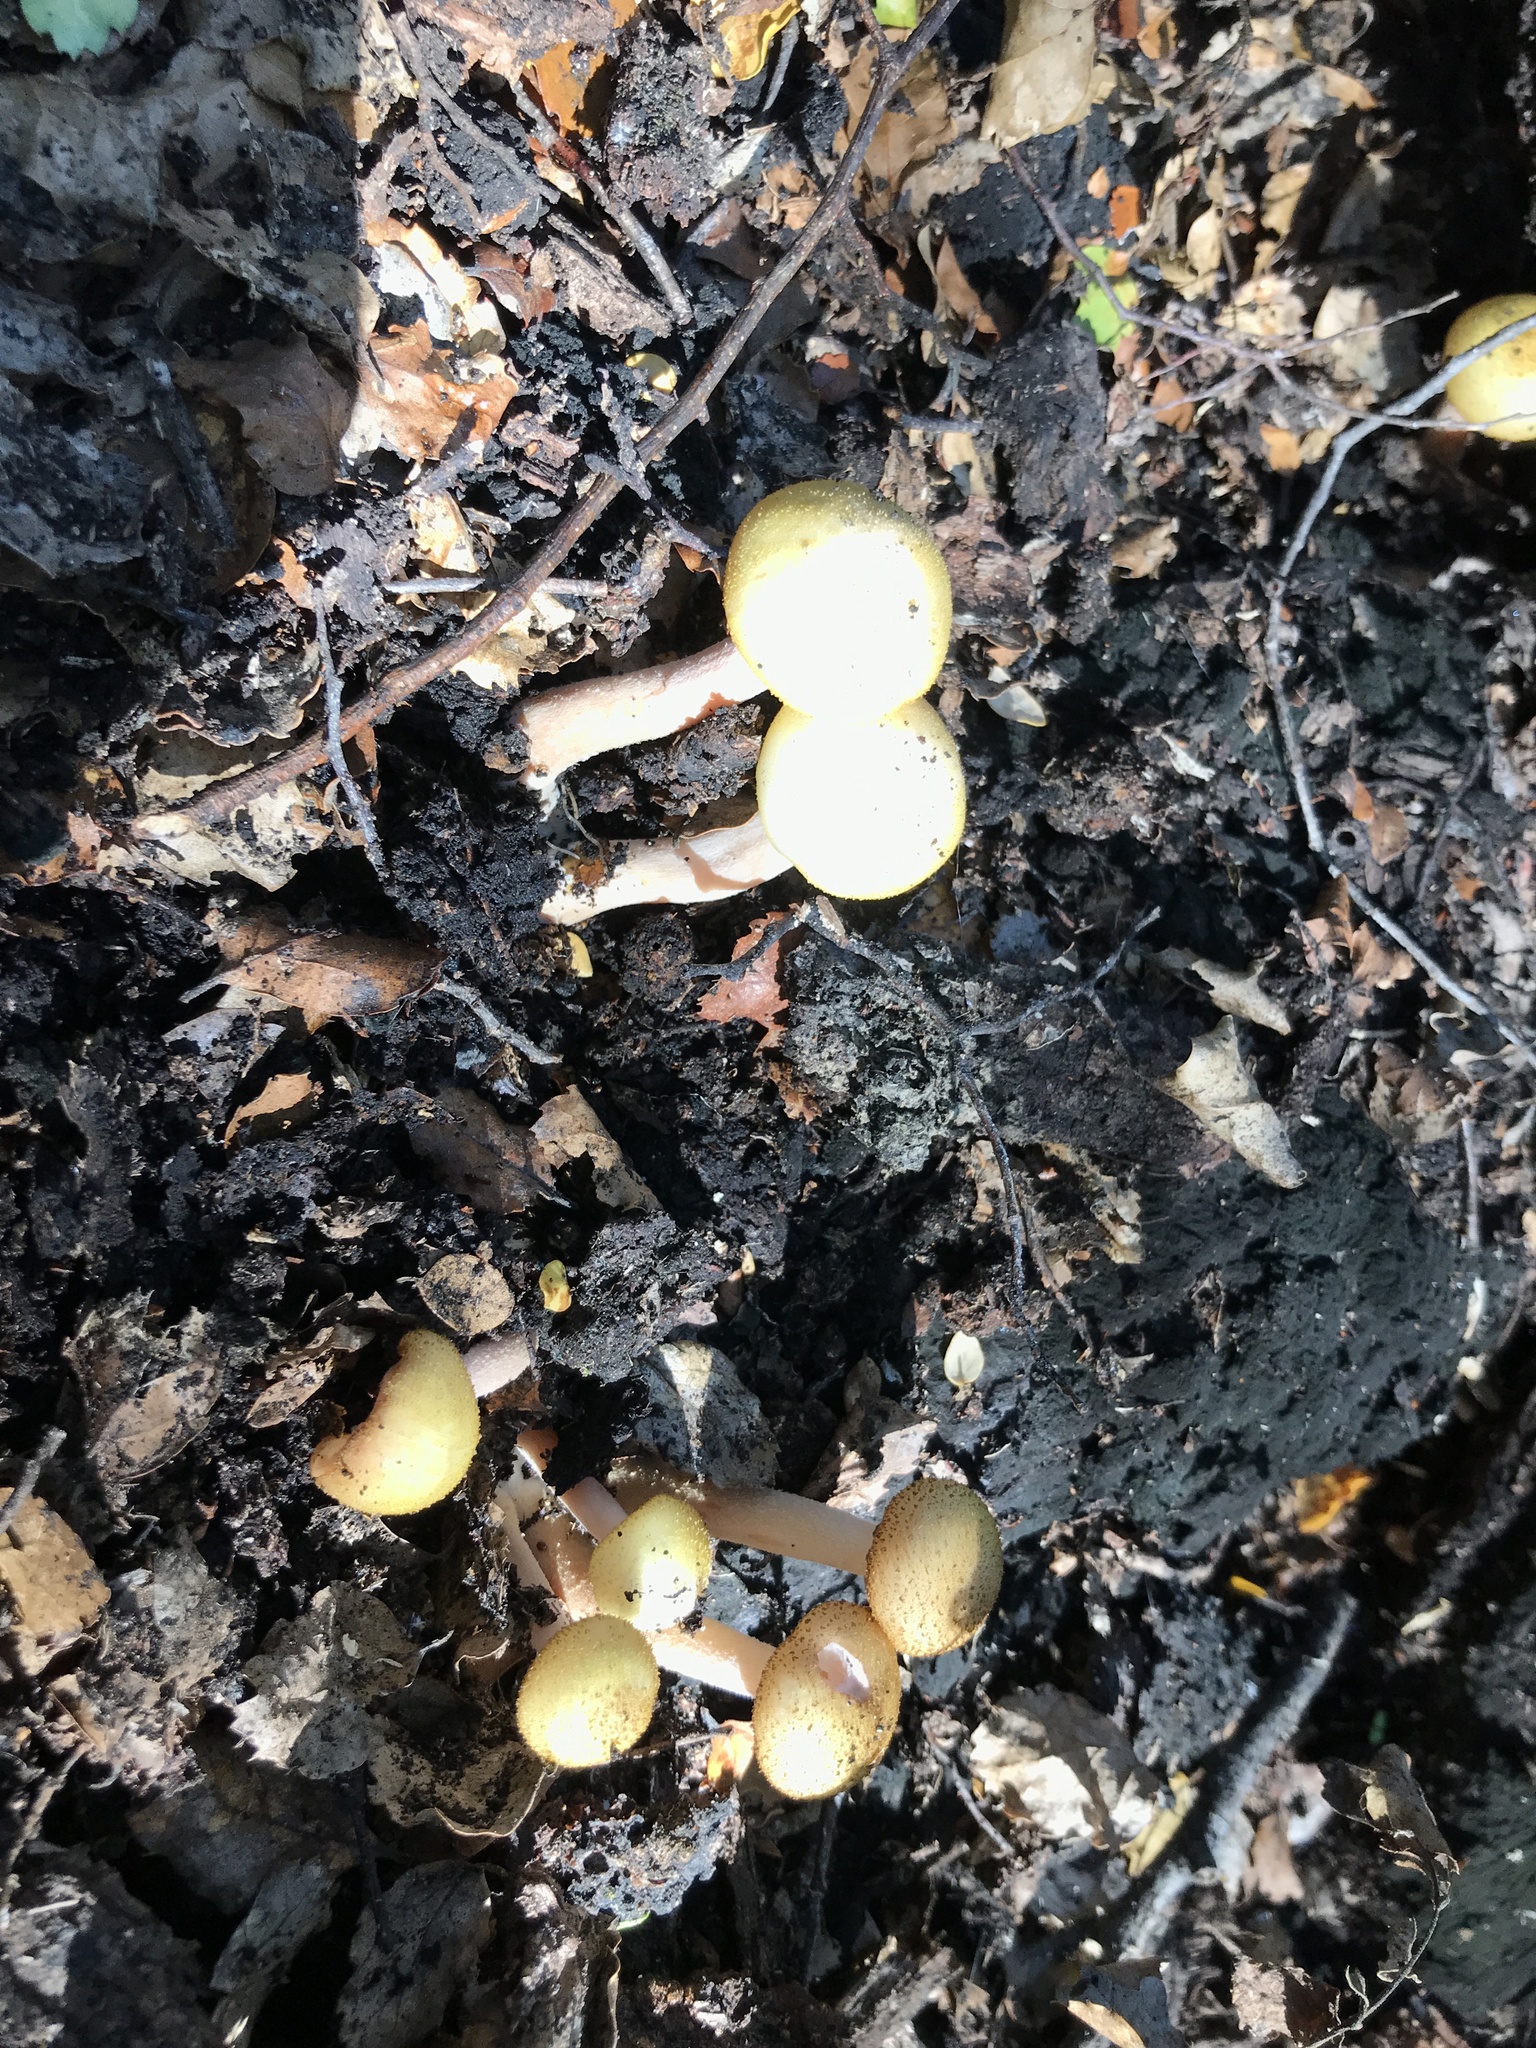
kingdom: Fungi
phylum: Basidiomycota
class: Agaricomycetes
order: Agaricales
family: Physalacriaceae
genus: Armillaria
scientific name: Armillaria limonea
